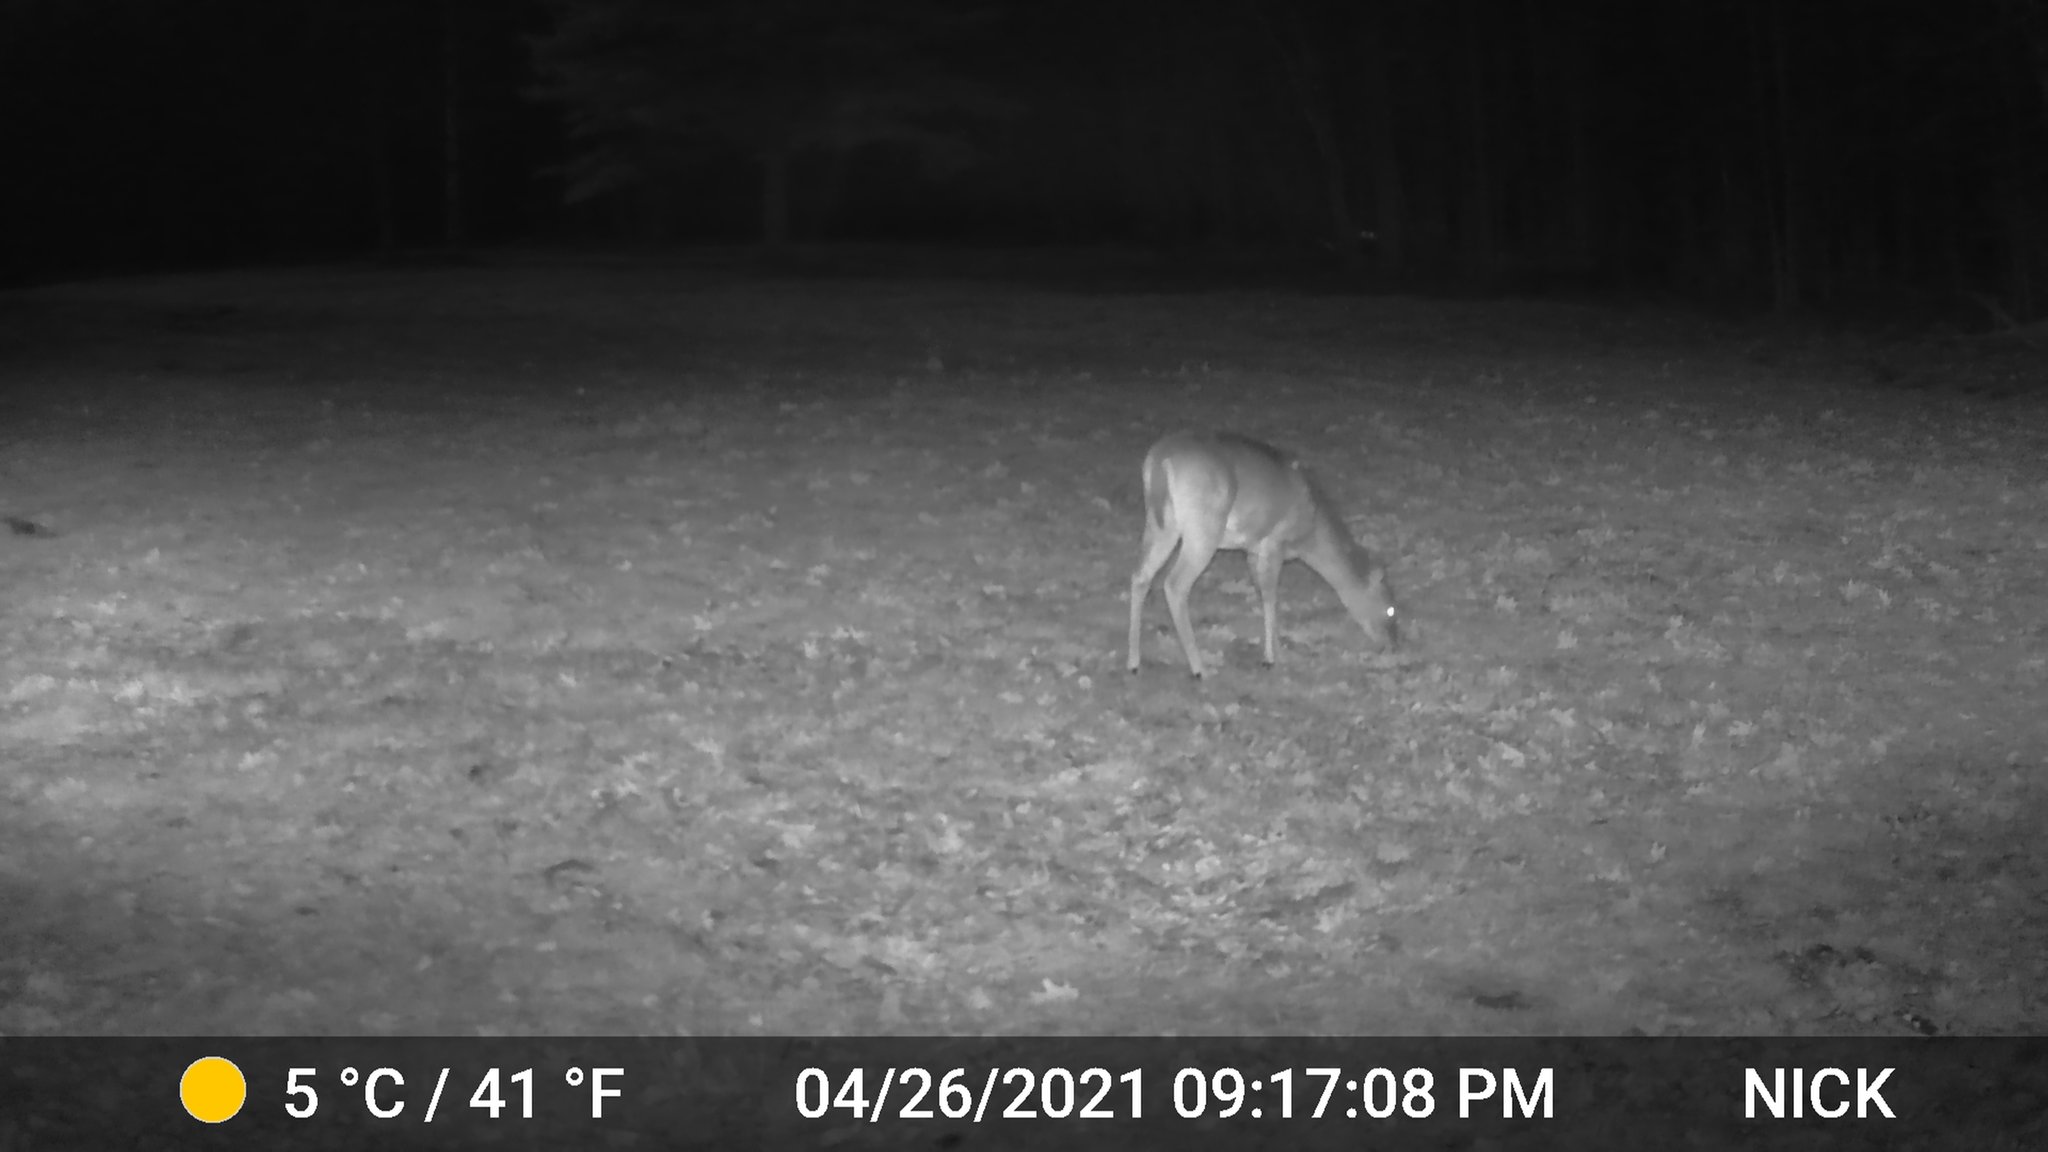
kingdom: Animalia
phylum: Chordata
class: Mammalia
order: Artiodactyla
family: Cervidae
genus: Odocoileus
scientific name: Odocoileus virginianus
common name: White-tailed deer
